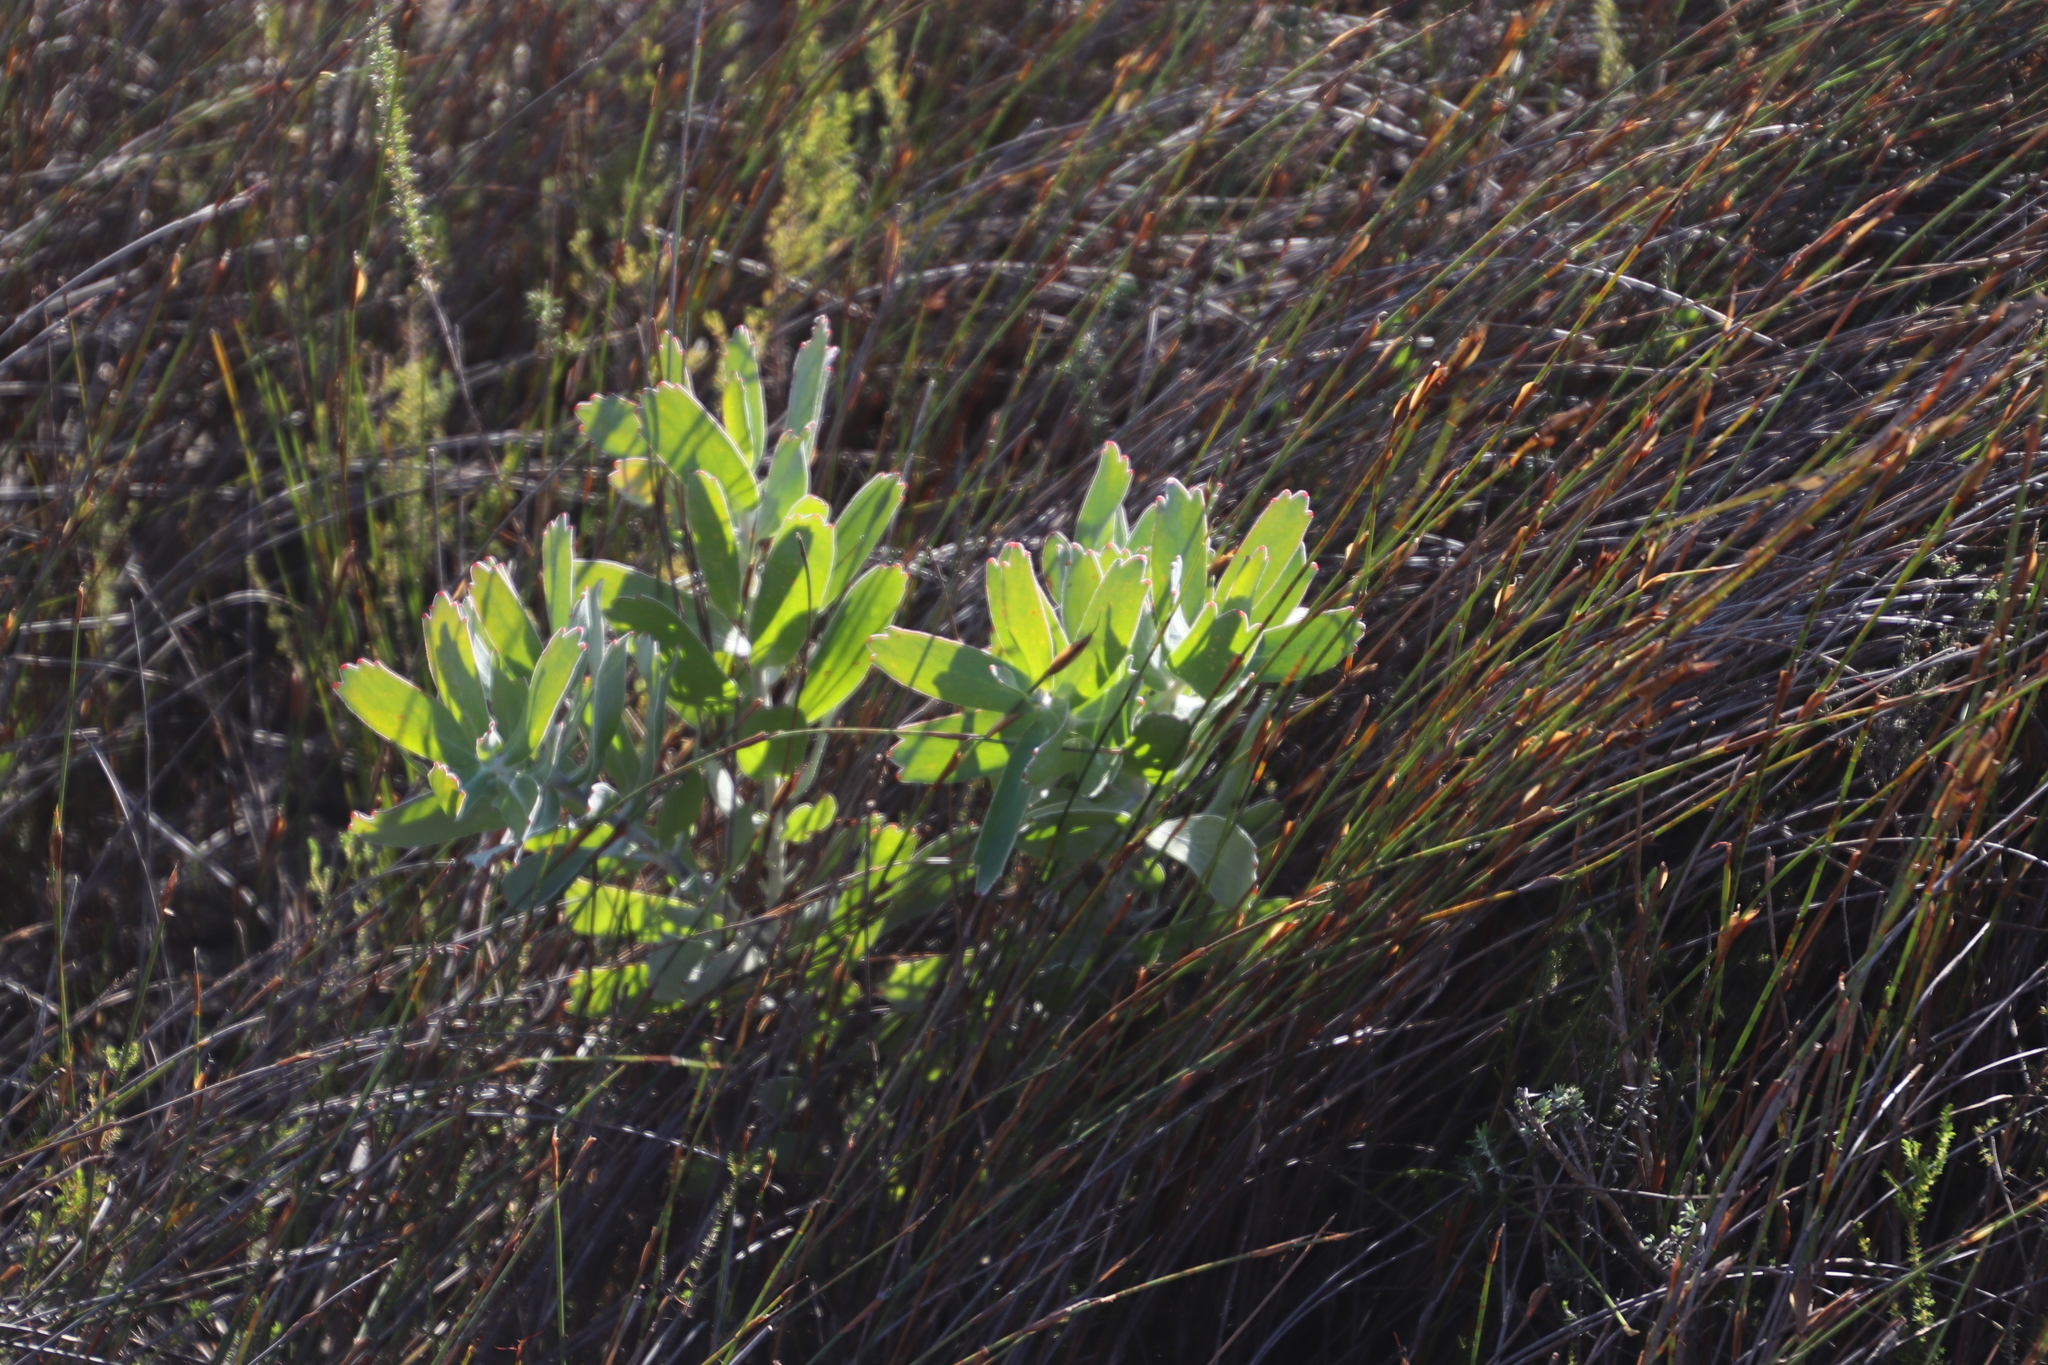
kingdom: Plantae
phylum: Tracheophyta
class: Magnoliopsida
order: Proteales
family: Proteaceae
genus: Leucospermum
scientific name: Leucospermum cordifolium
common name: Red pincushion-protea
